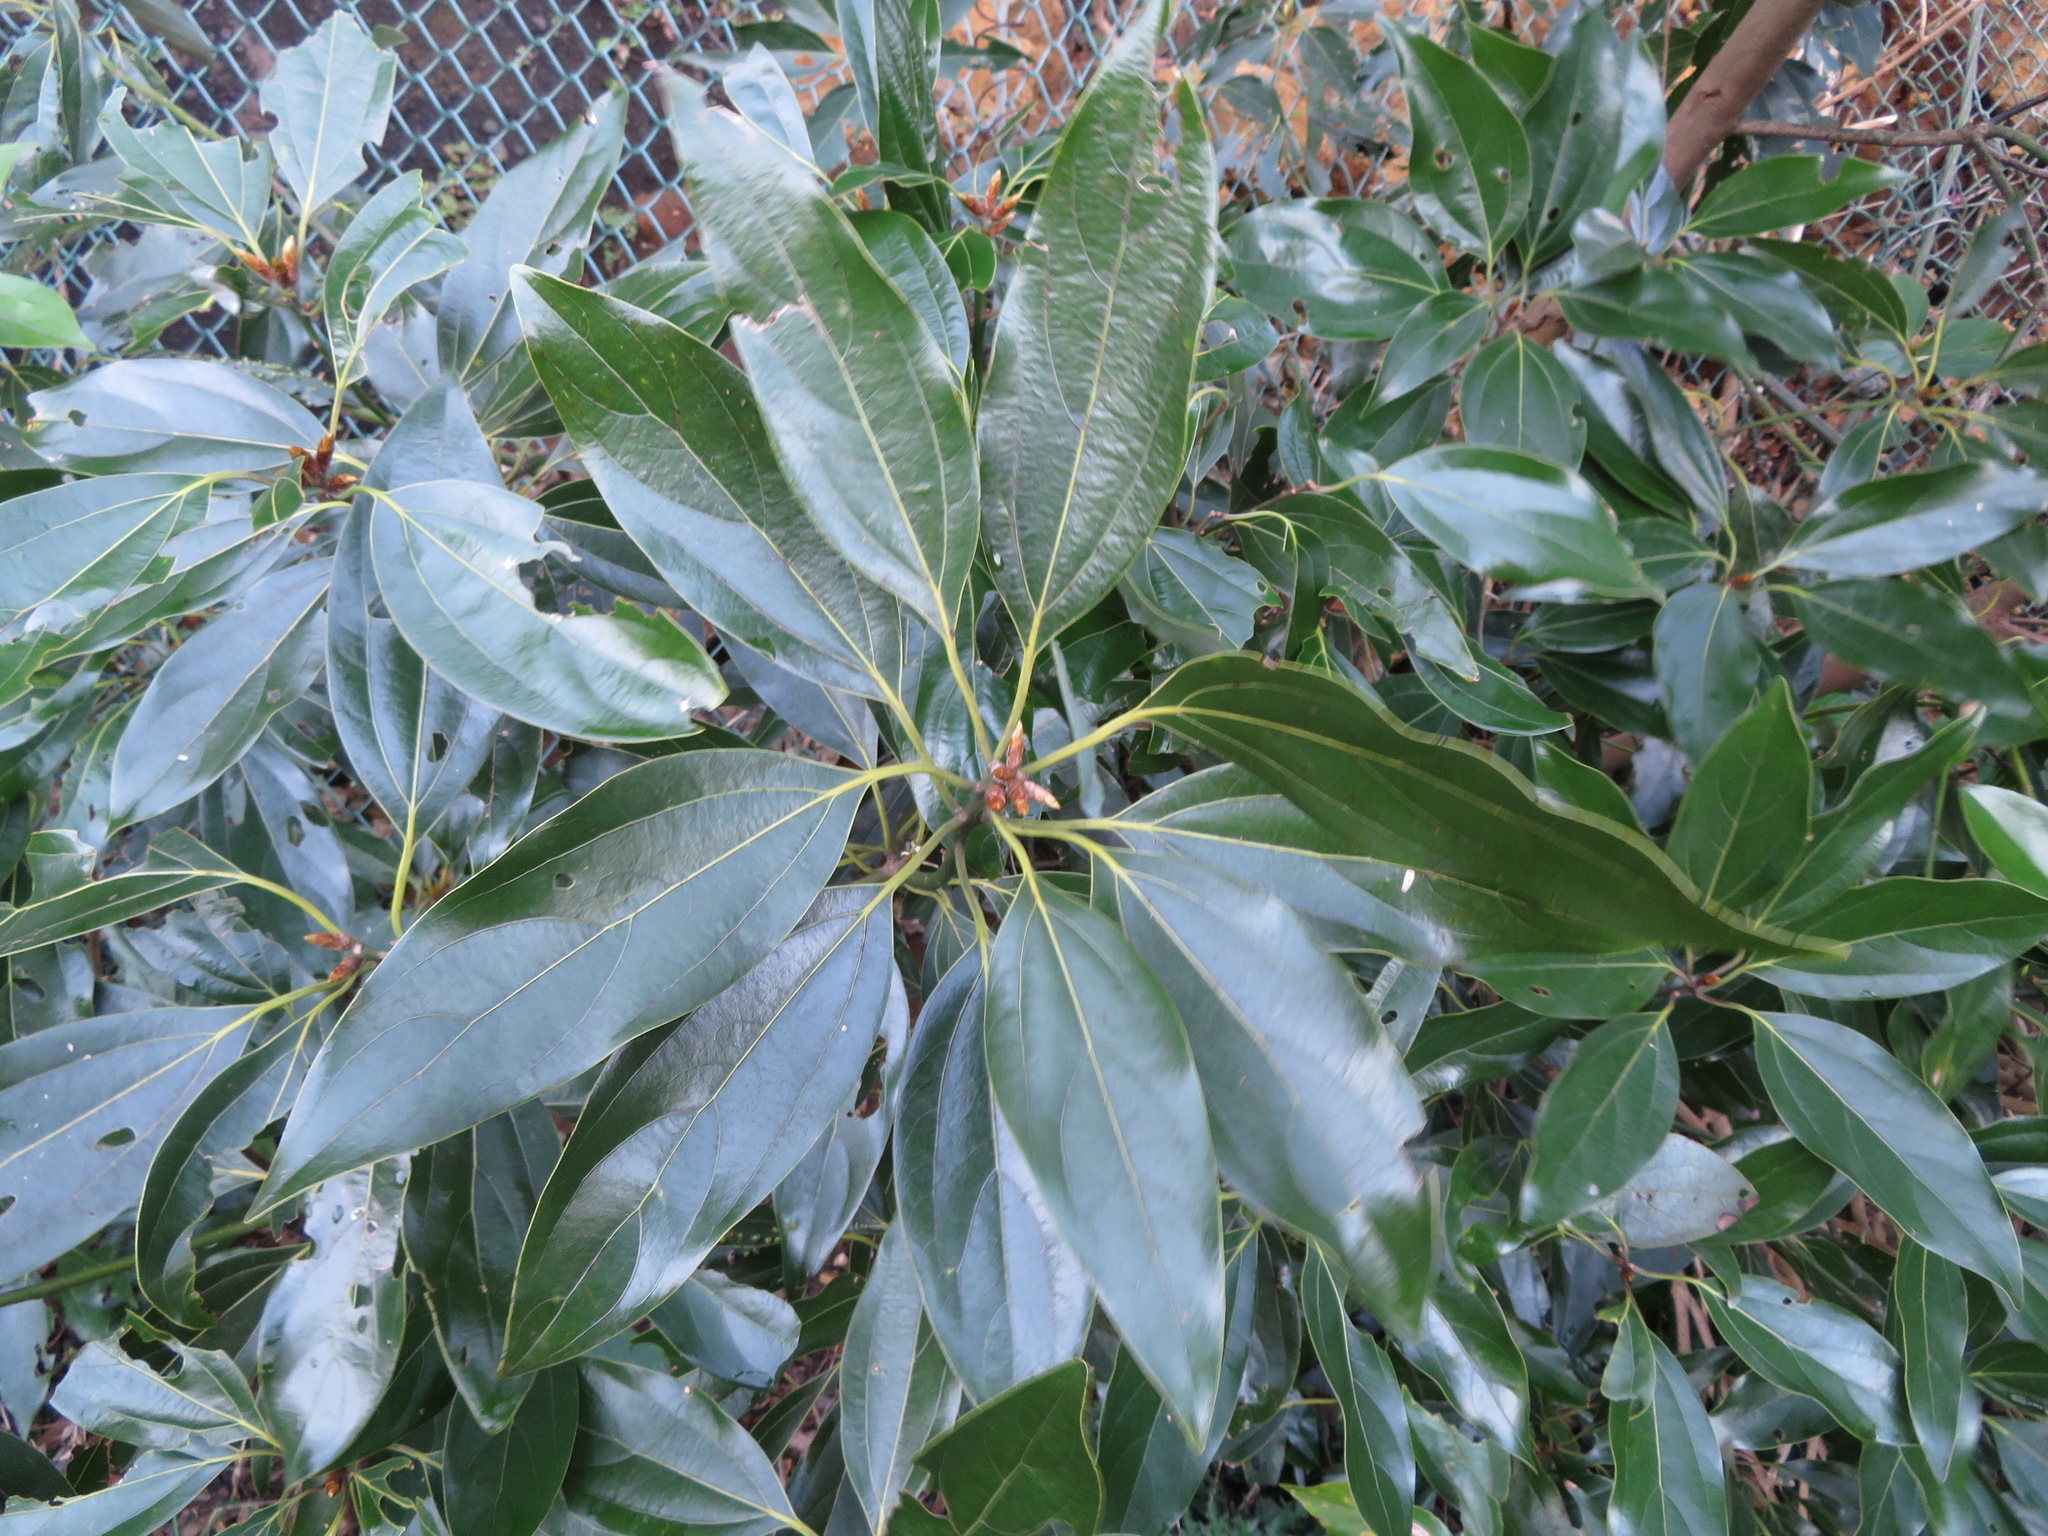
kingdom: Plantae
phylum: Tracheophyta
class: Magnoliopsida
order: Laurales
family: Lauraceae
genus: Neolitsea
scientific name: Neolitsea sericea
